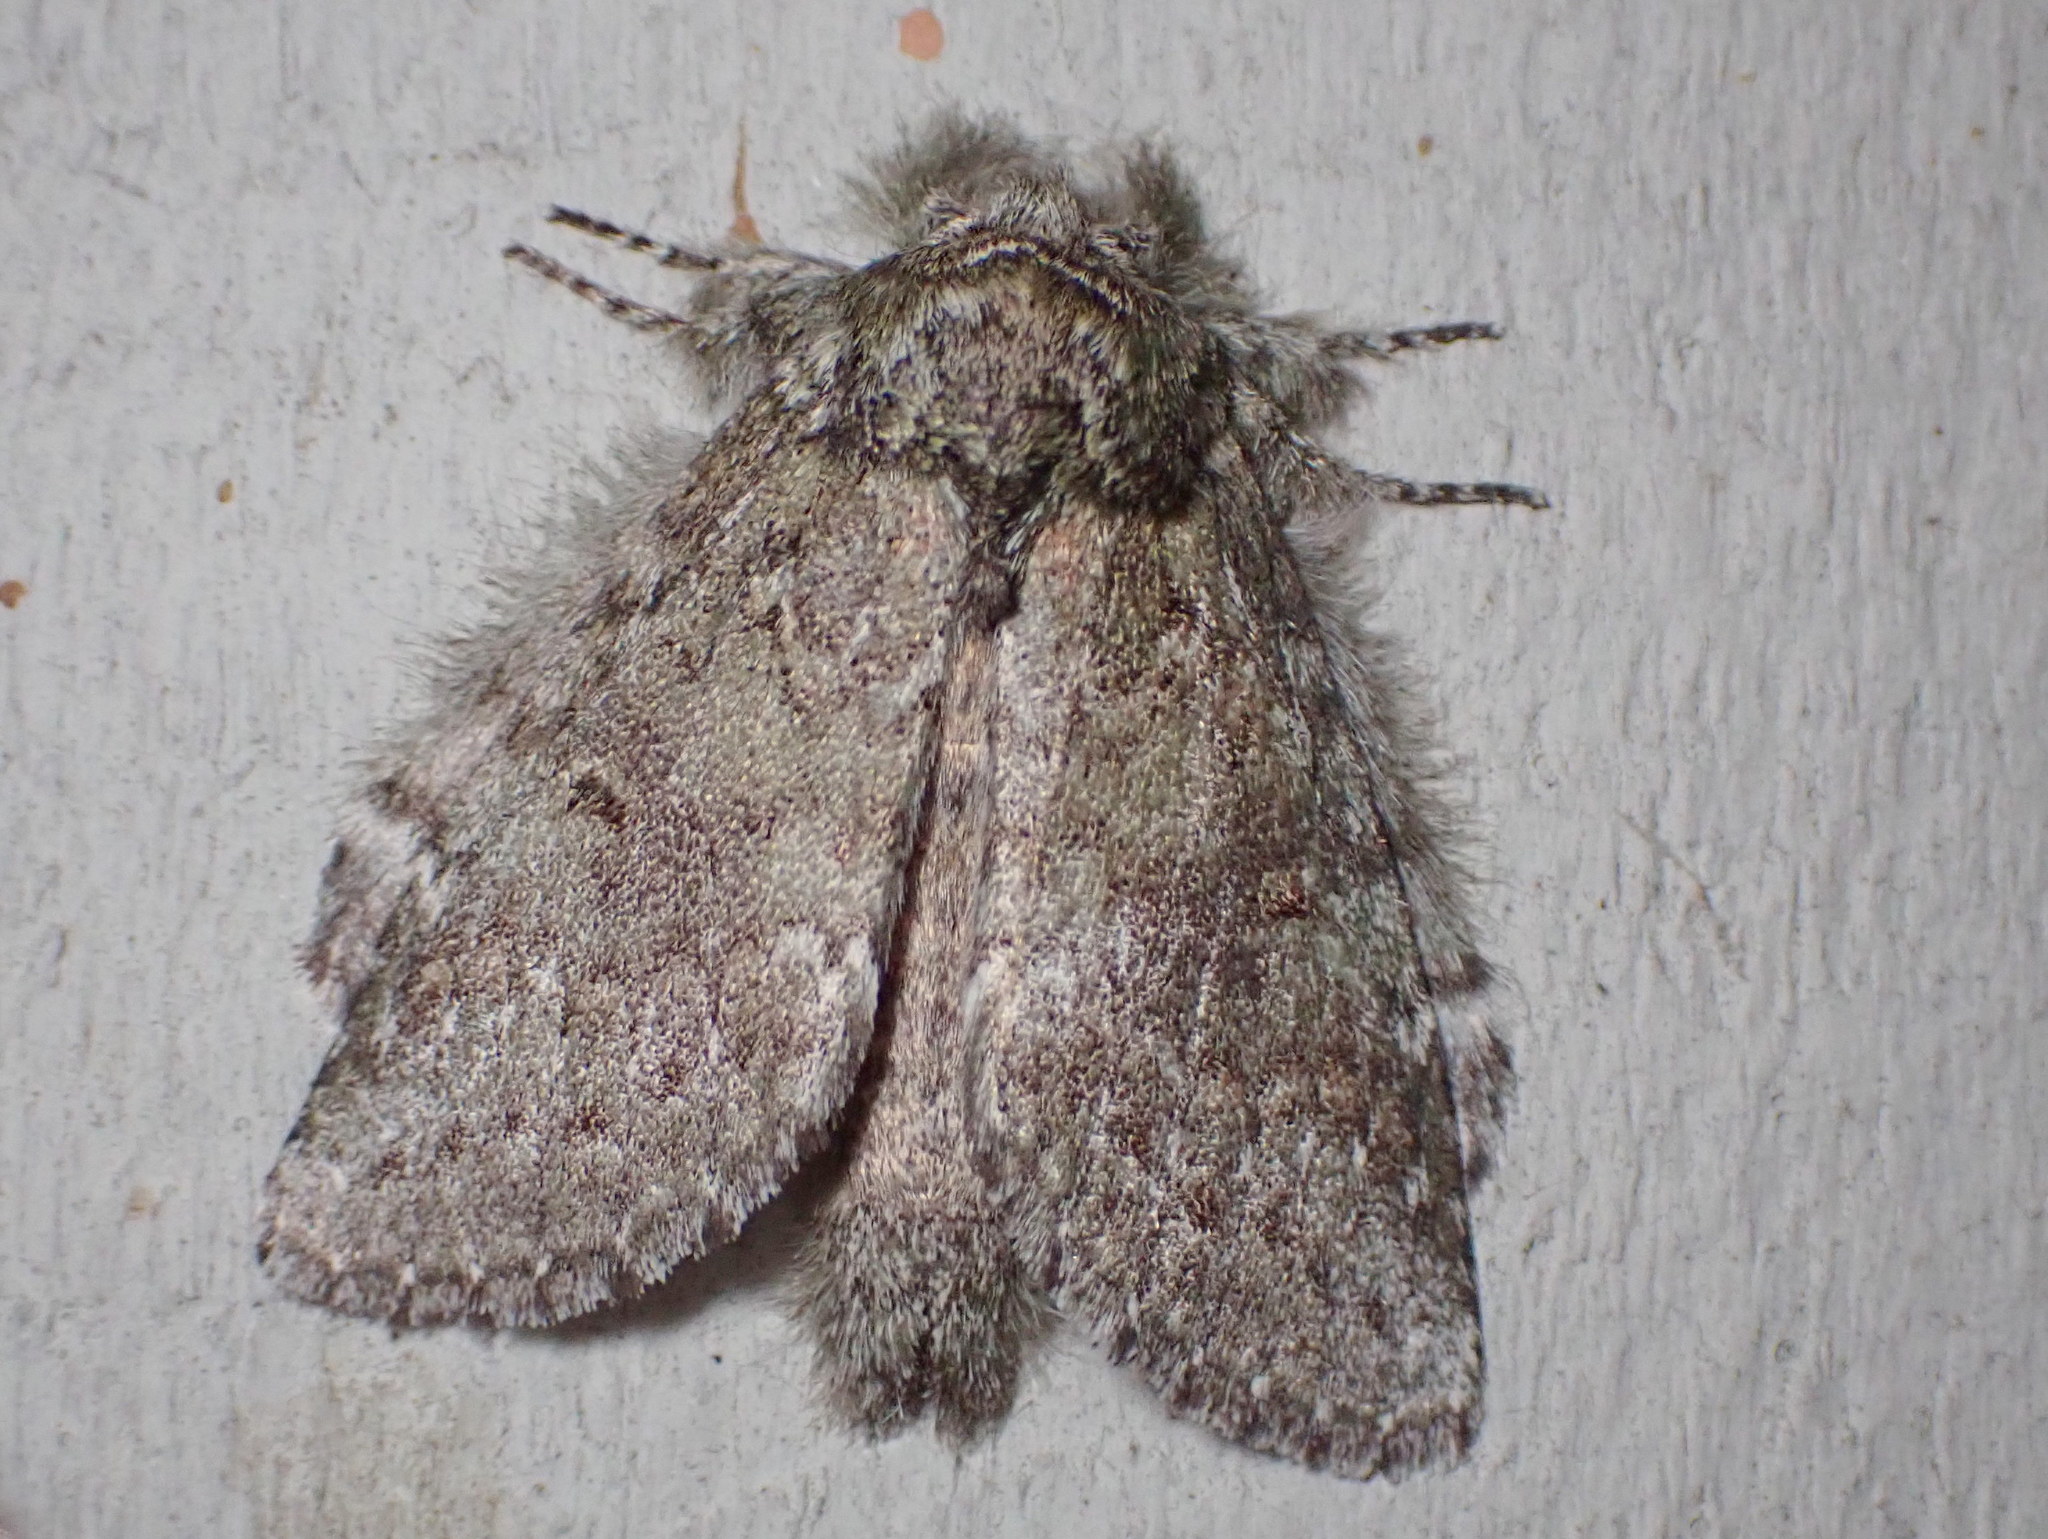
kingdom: Animalia
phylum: Arthropoda
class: Insecta
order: Lepidoptera
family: Notodontidae
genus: Disphragis
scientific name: Disphragis Cecrita guttivitta
